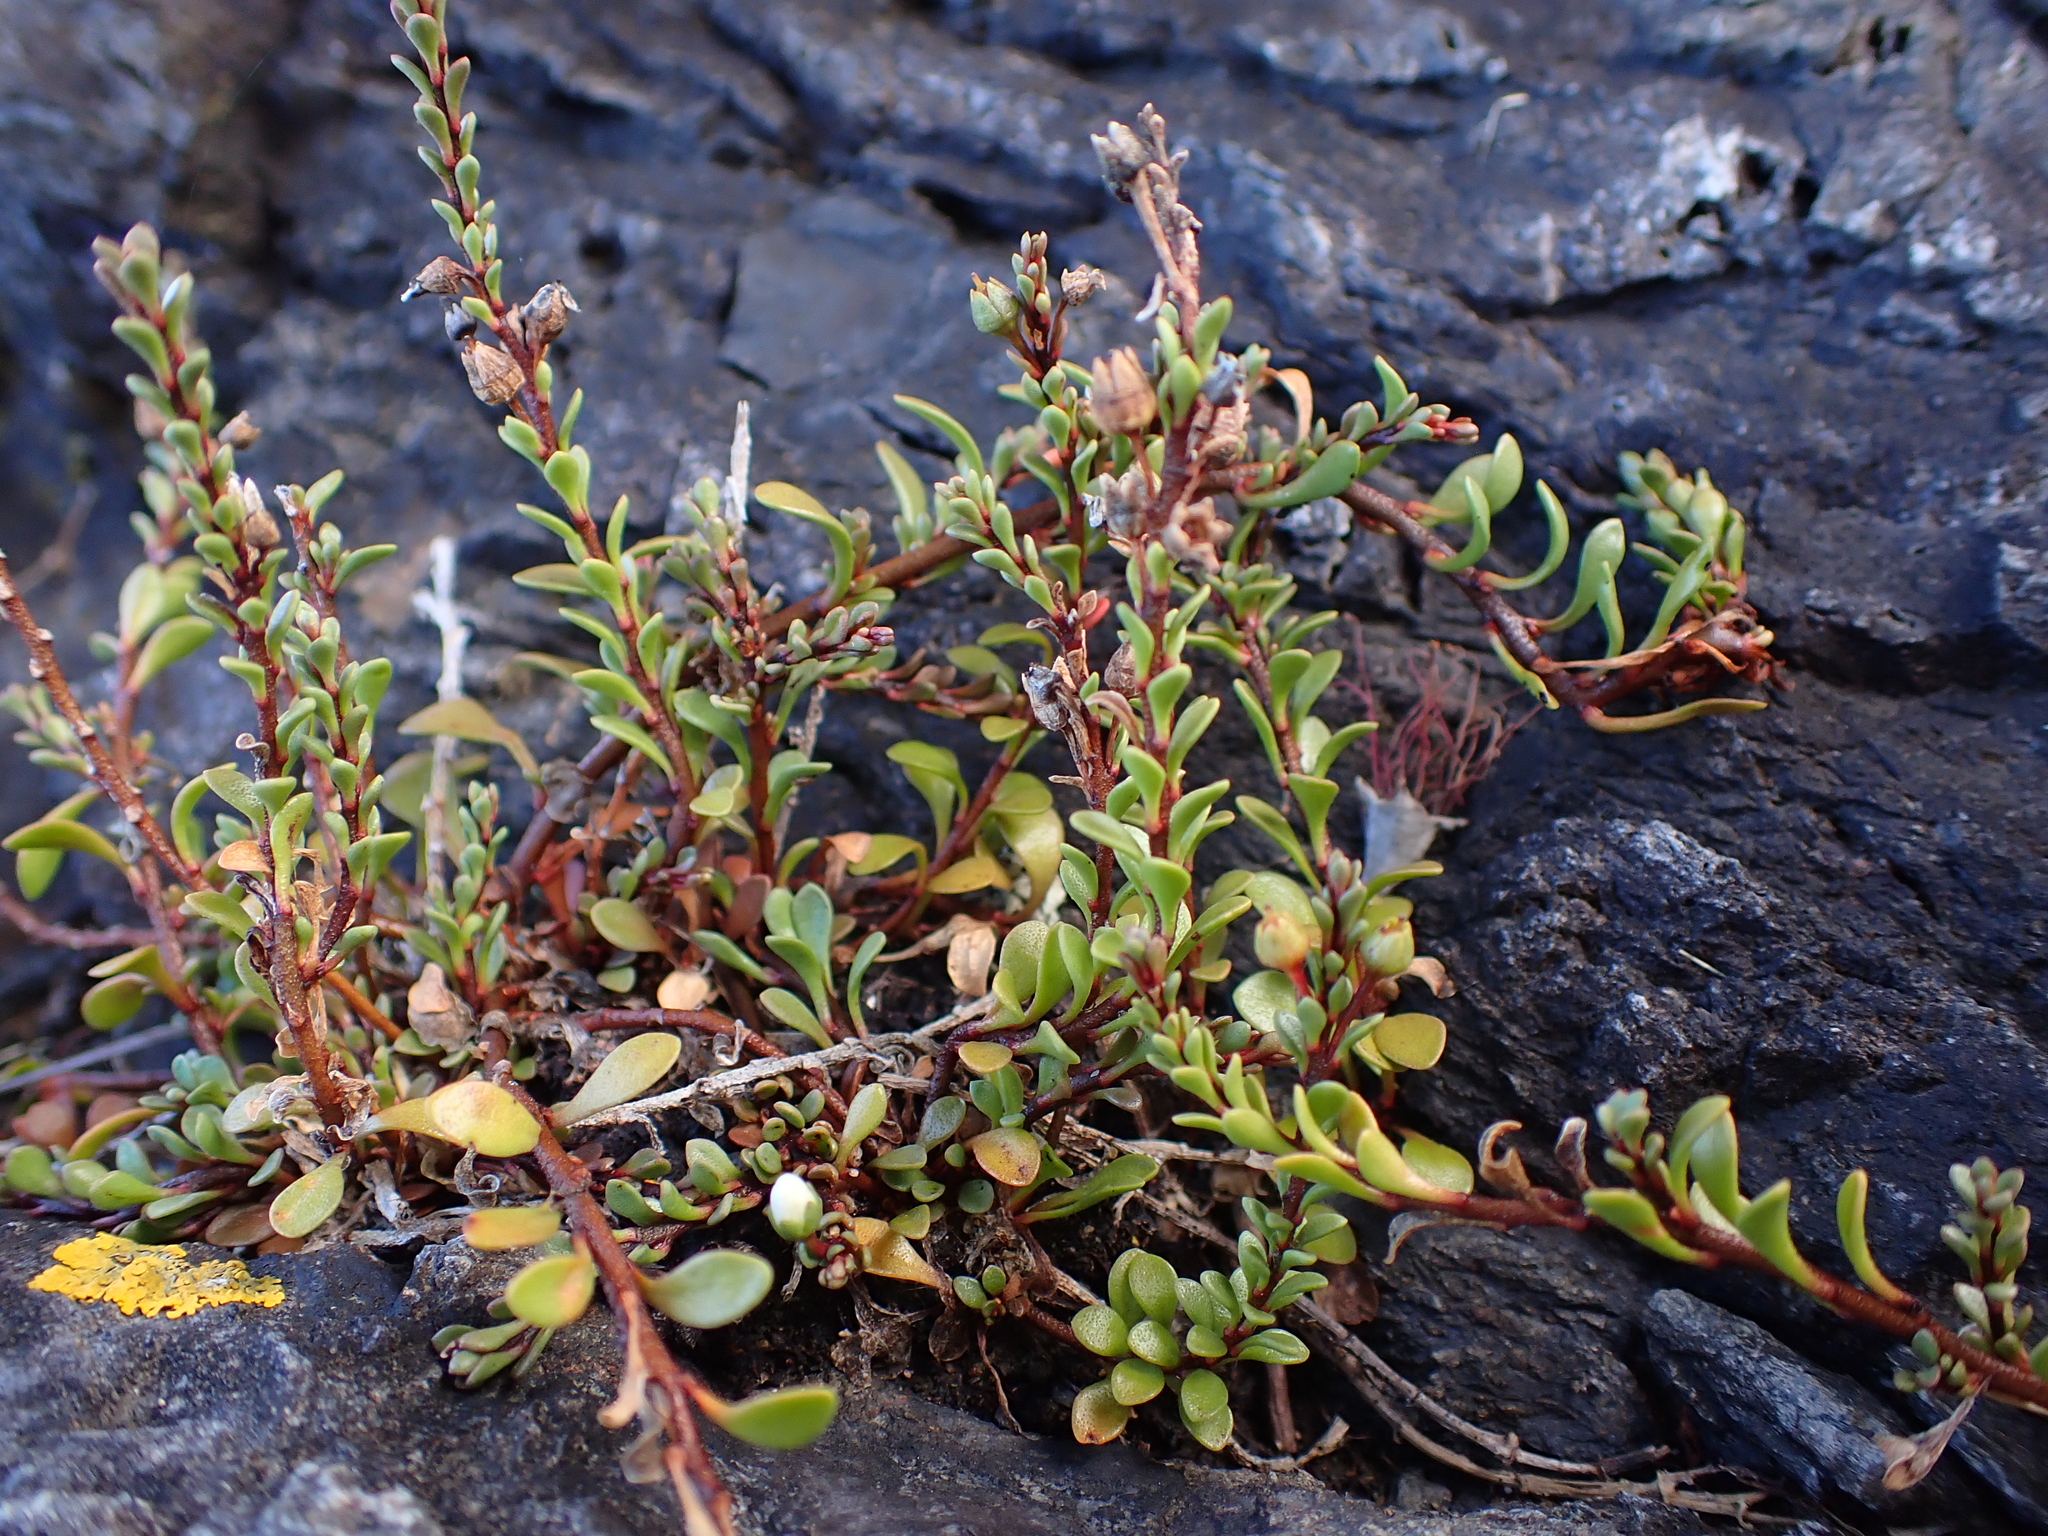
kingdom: Plantae
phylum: Tracheophyta
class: Magnoliopsida
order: Ericales
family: Primulaceae
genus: Samolus
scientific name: Samolus repens
